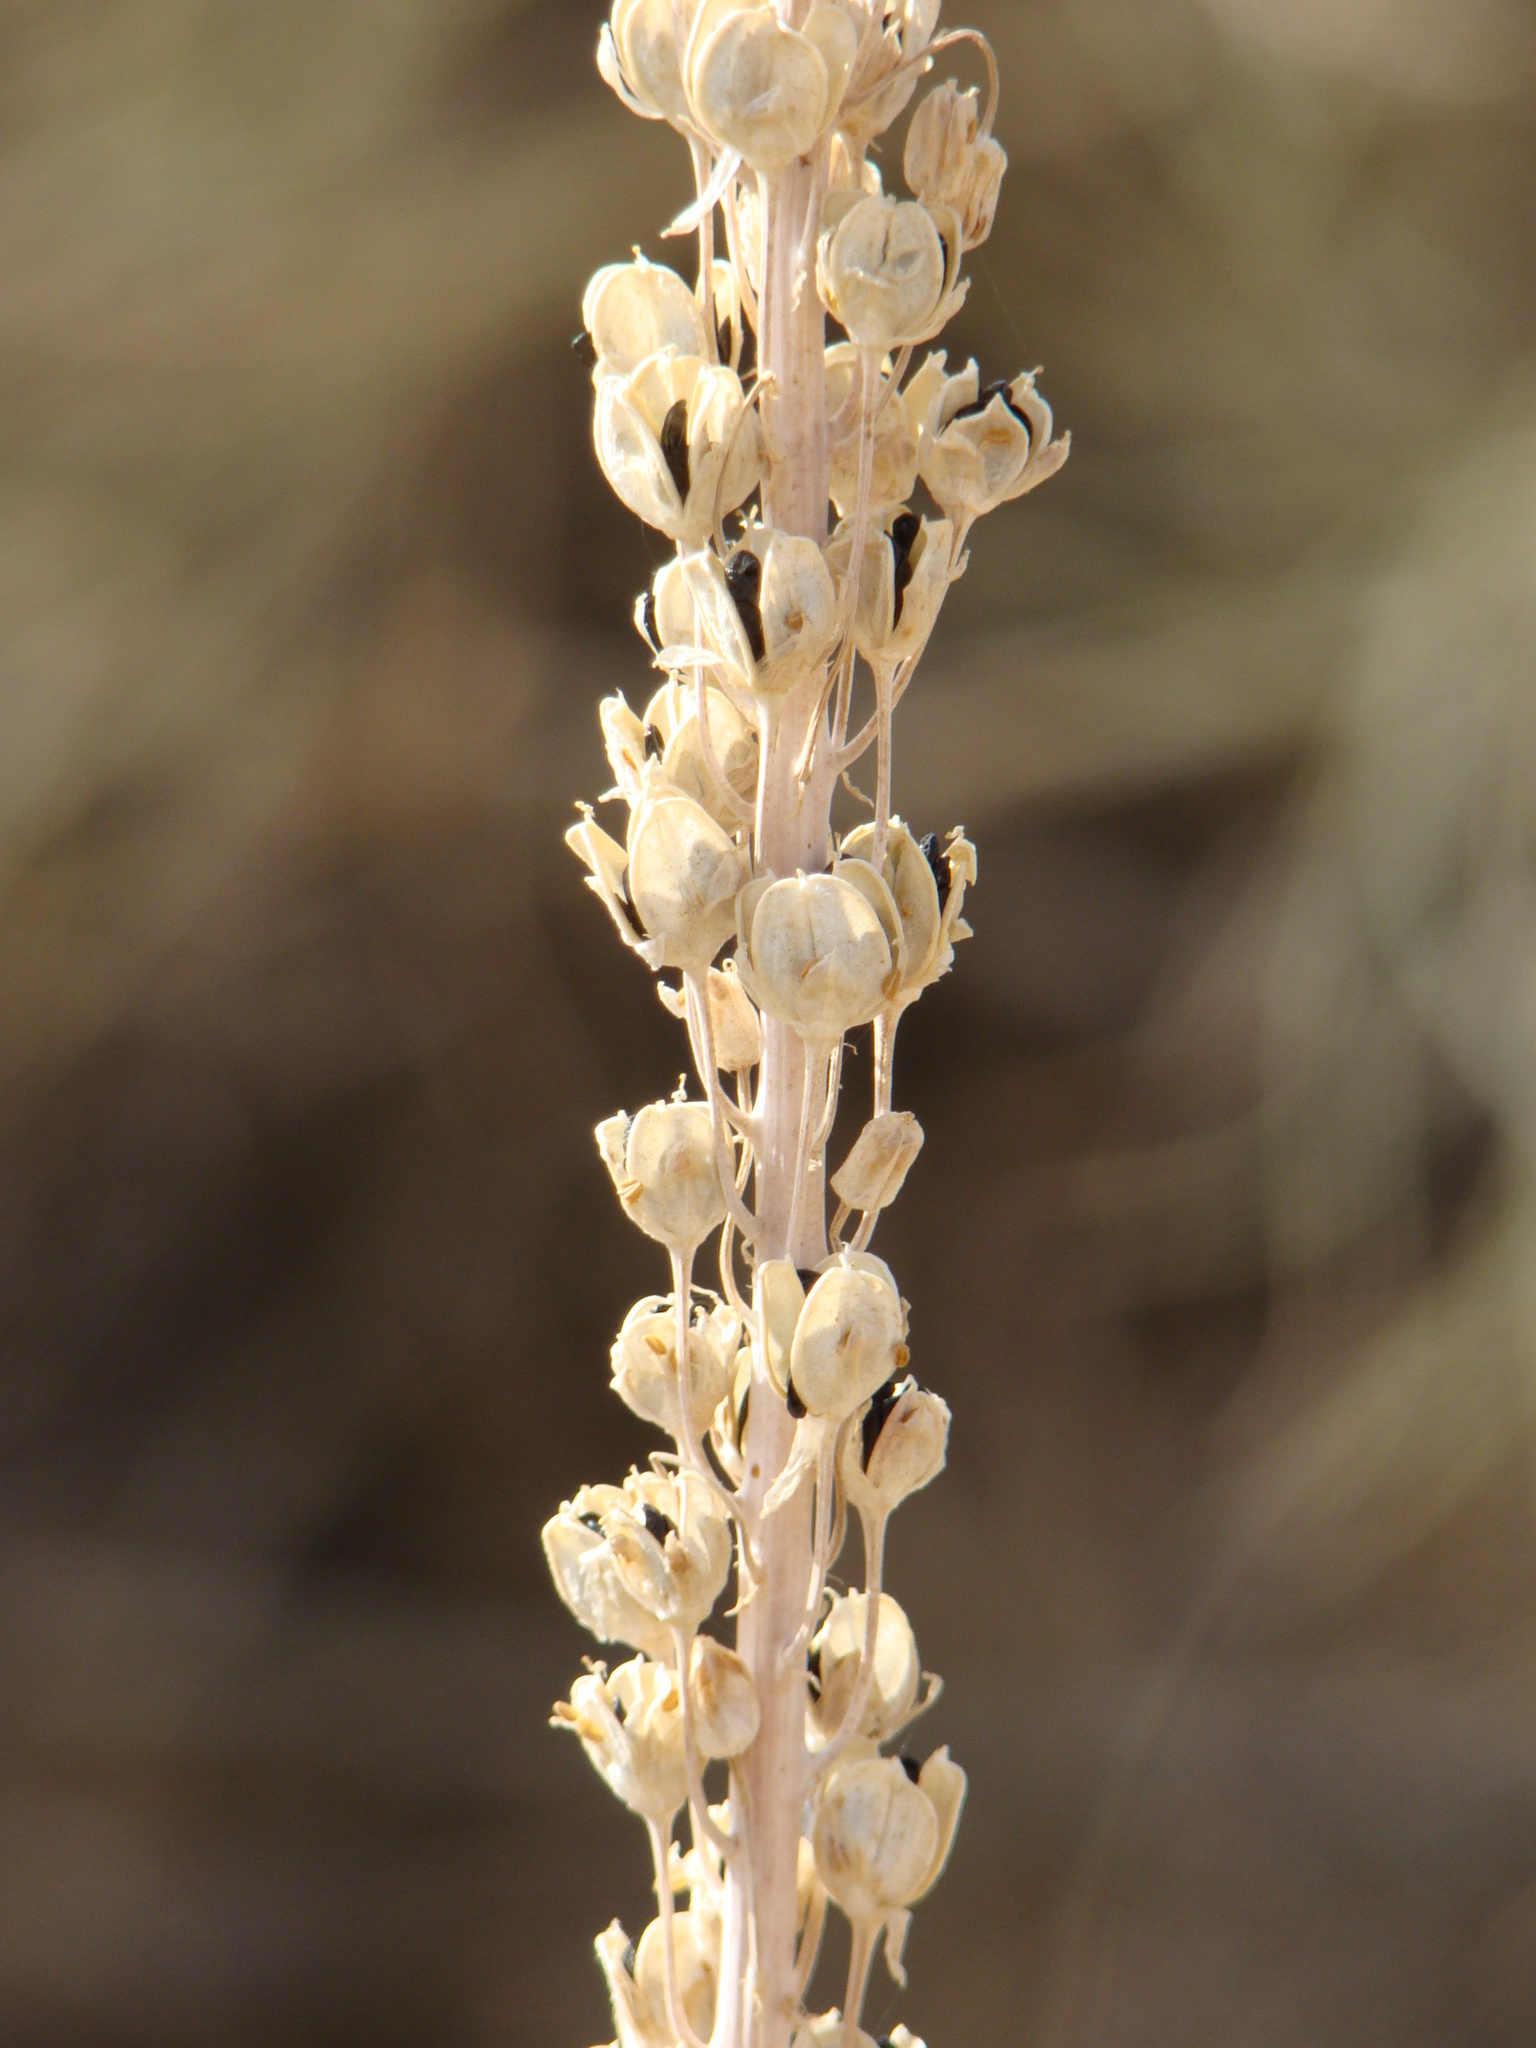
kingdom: Plantae
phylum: Tracheophyta
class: Liliopsida
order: Asparagales
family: Asparagaceae
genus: Drimia
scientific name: Drimia aphylla
